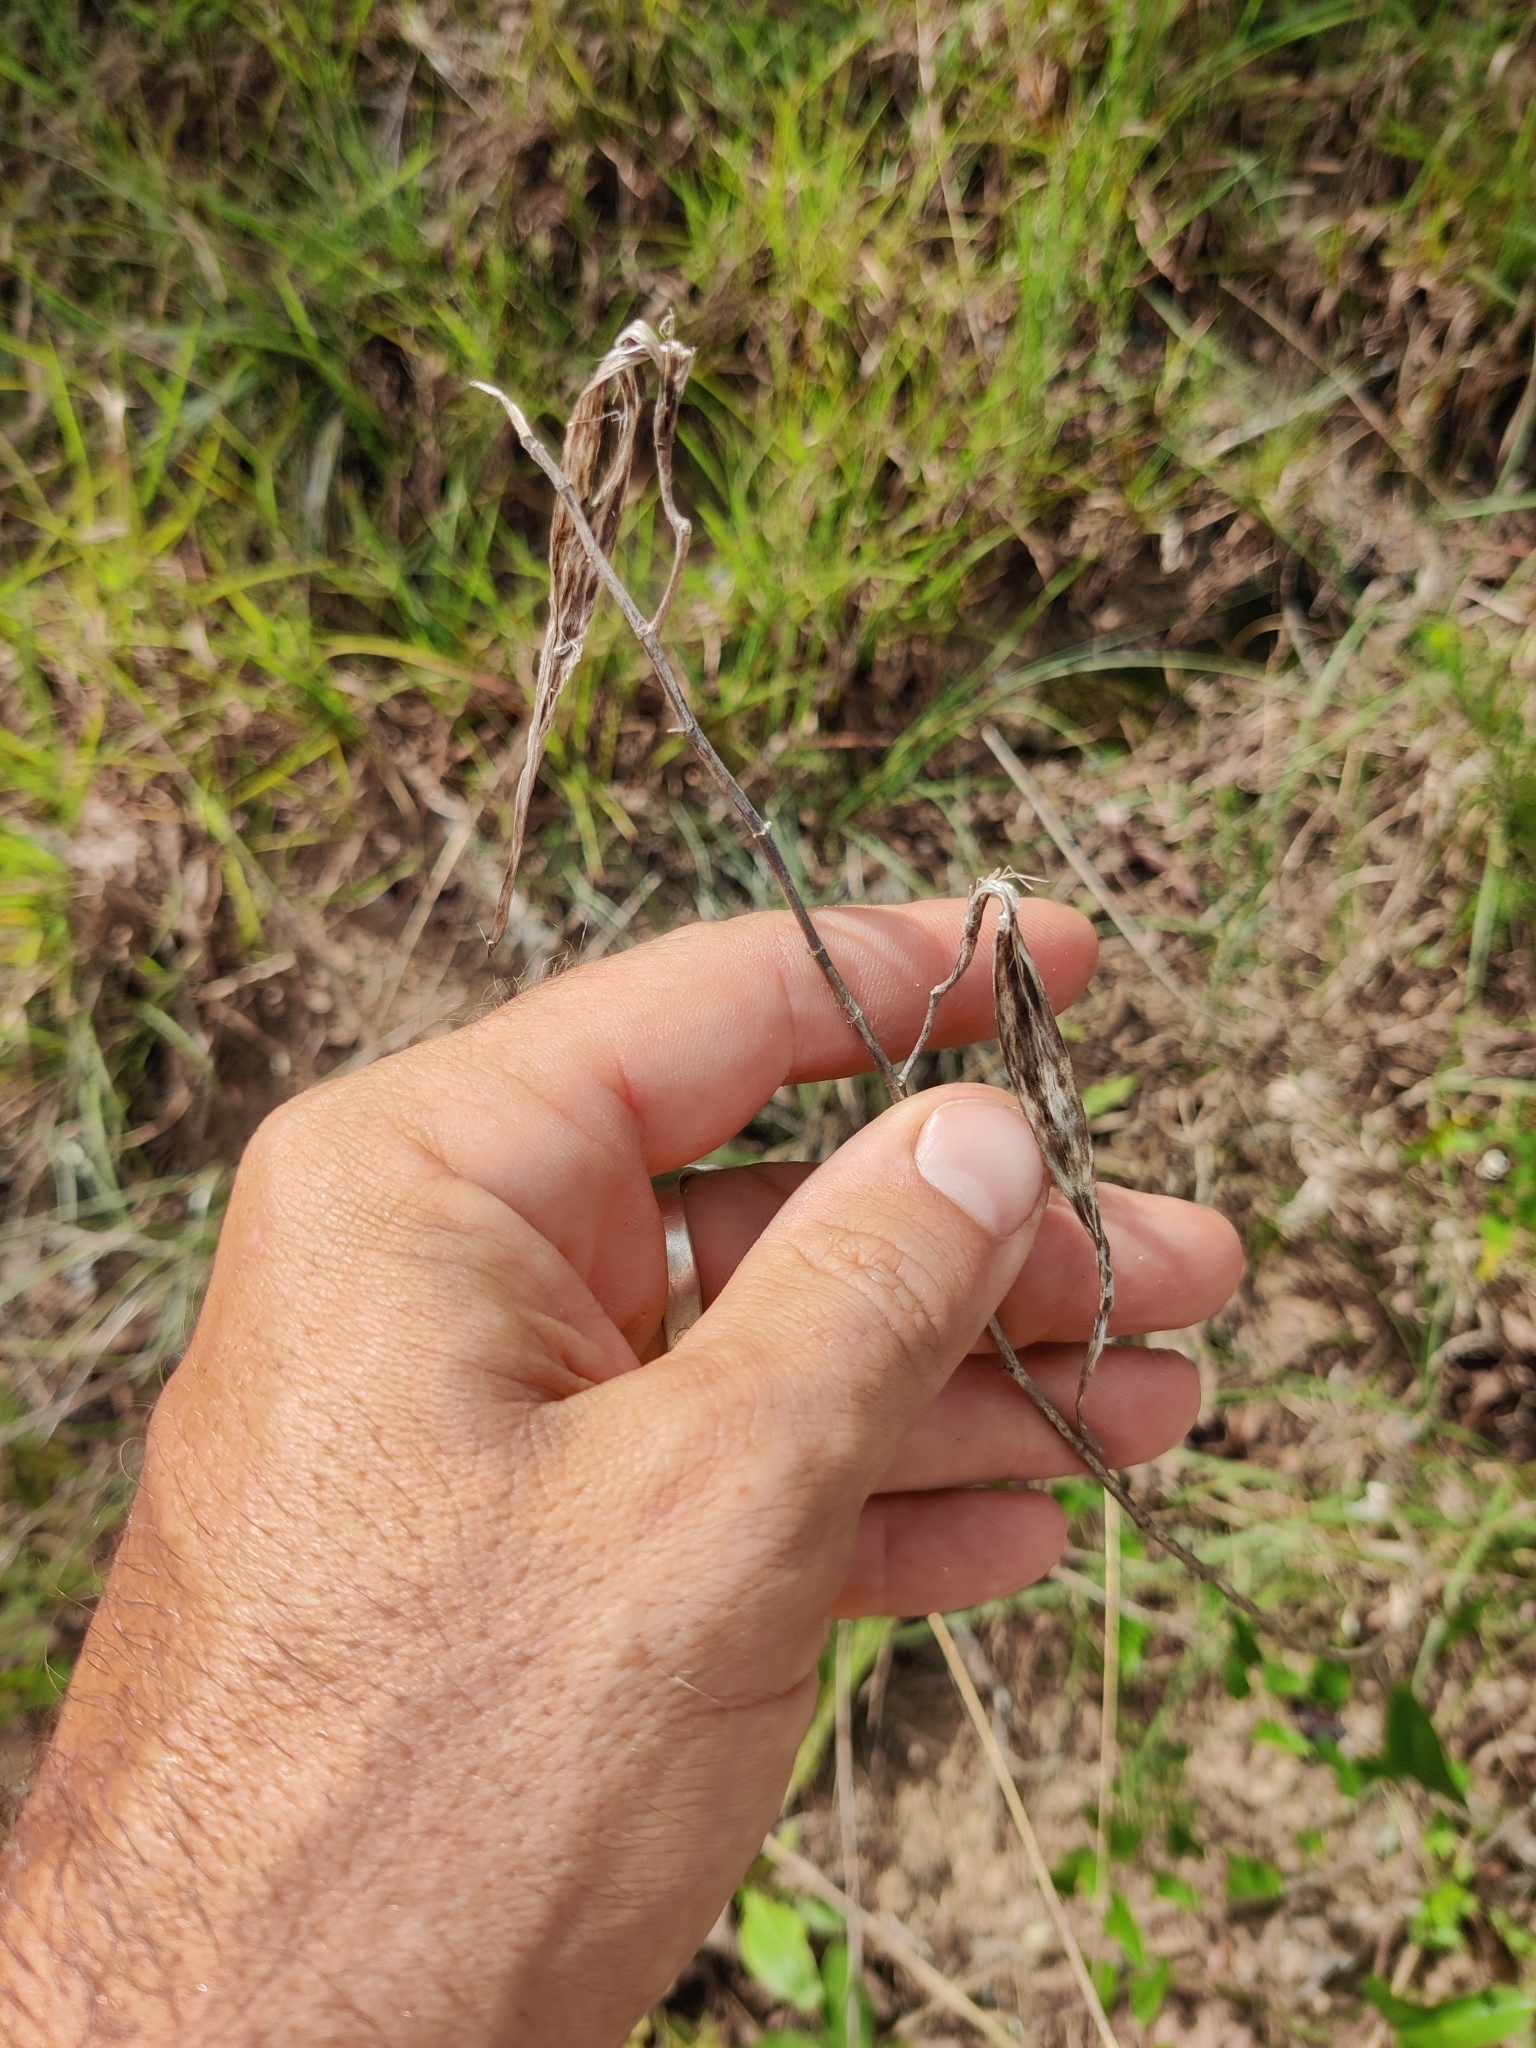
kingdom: Plantae
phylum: Tracheophyta
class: Magnoliopsida
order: Gentianales
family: Apocynaceae
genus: Asclepias
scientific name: Asclepias verticillata
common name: Eastern whorled milkweed
